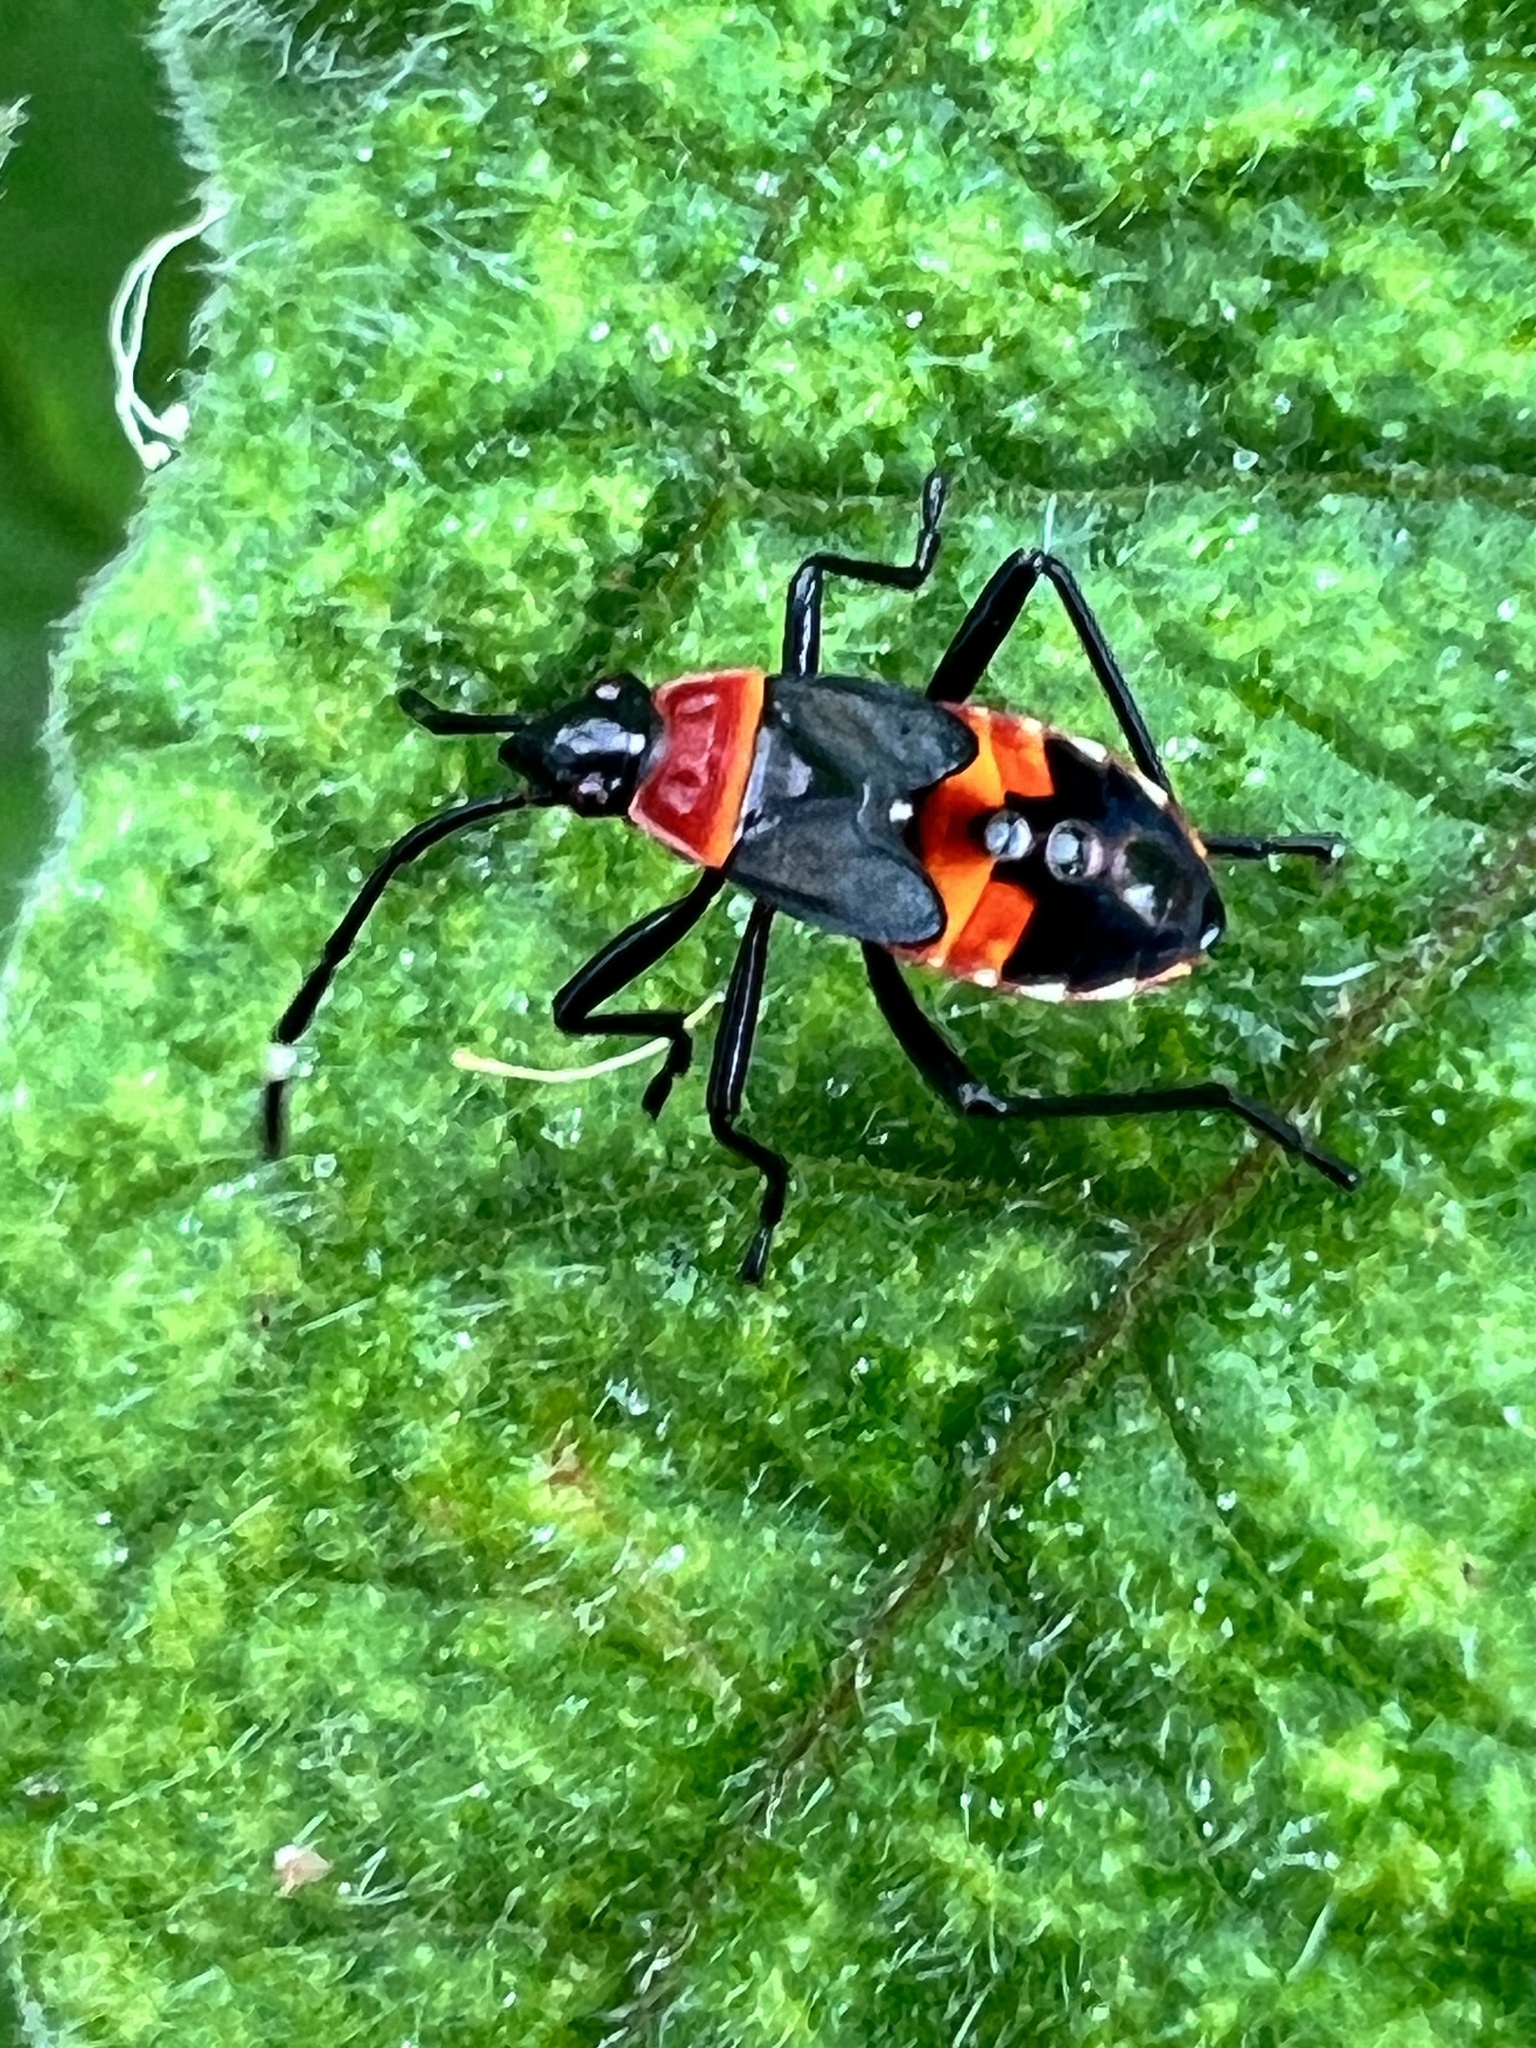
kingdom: Animalia
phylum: Arthropoda
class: Insecta
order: Hemiptera
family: Pyrrhocoridae
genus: Dindymus
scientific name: Dindymus
